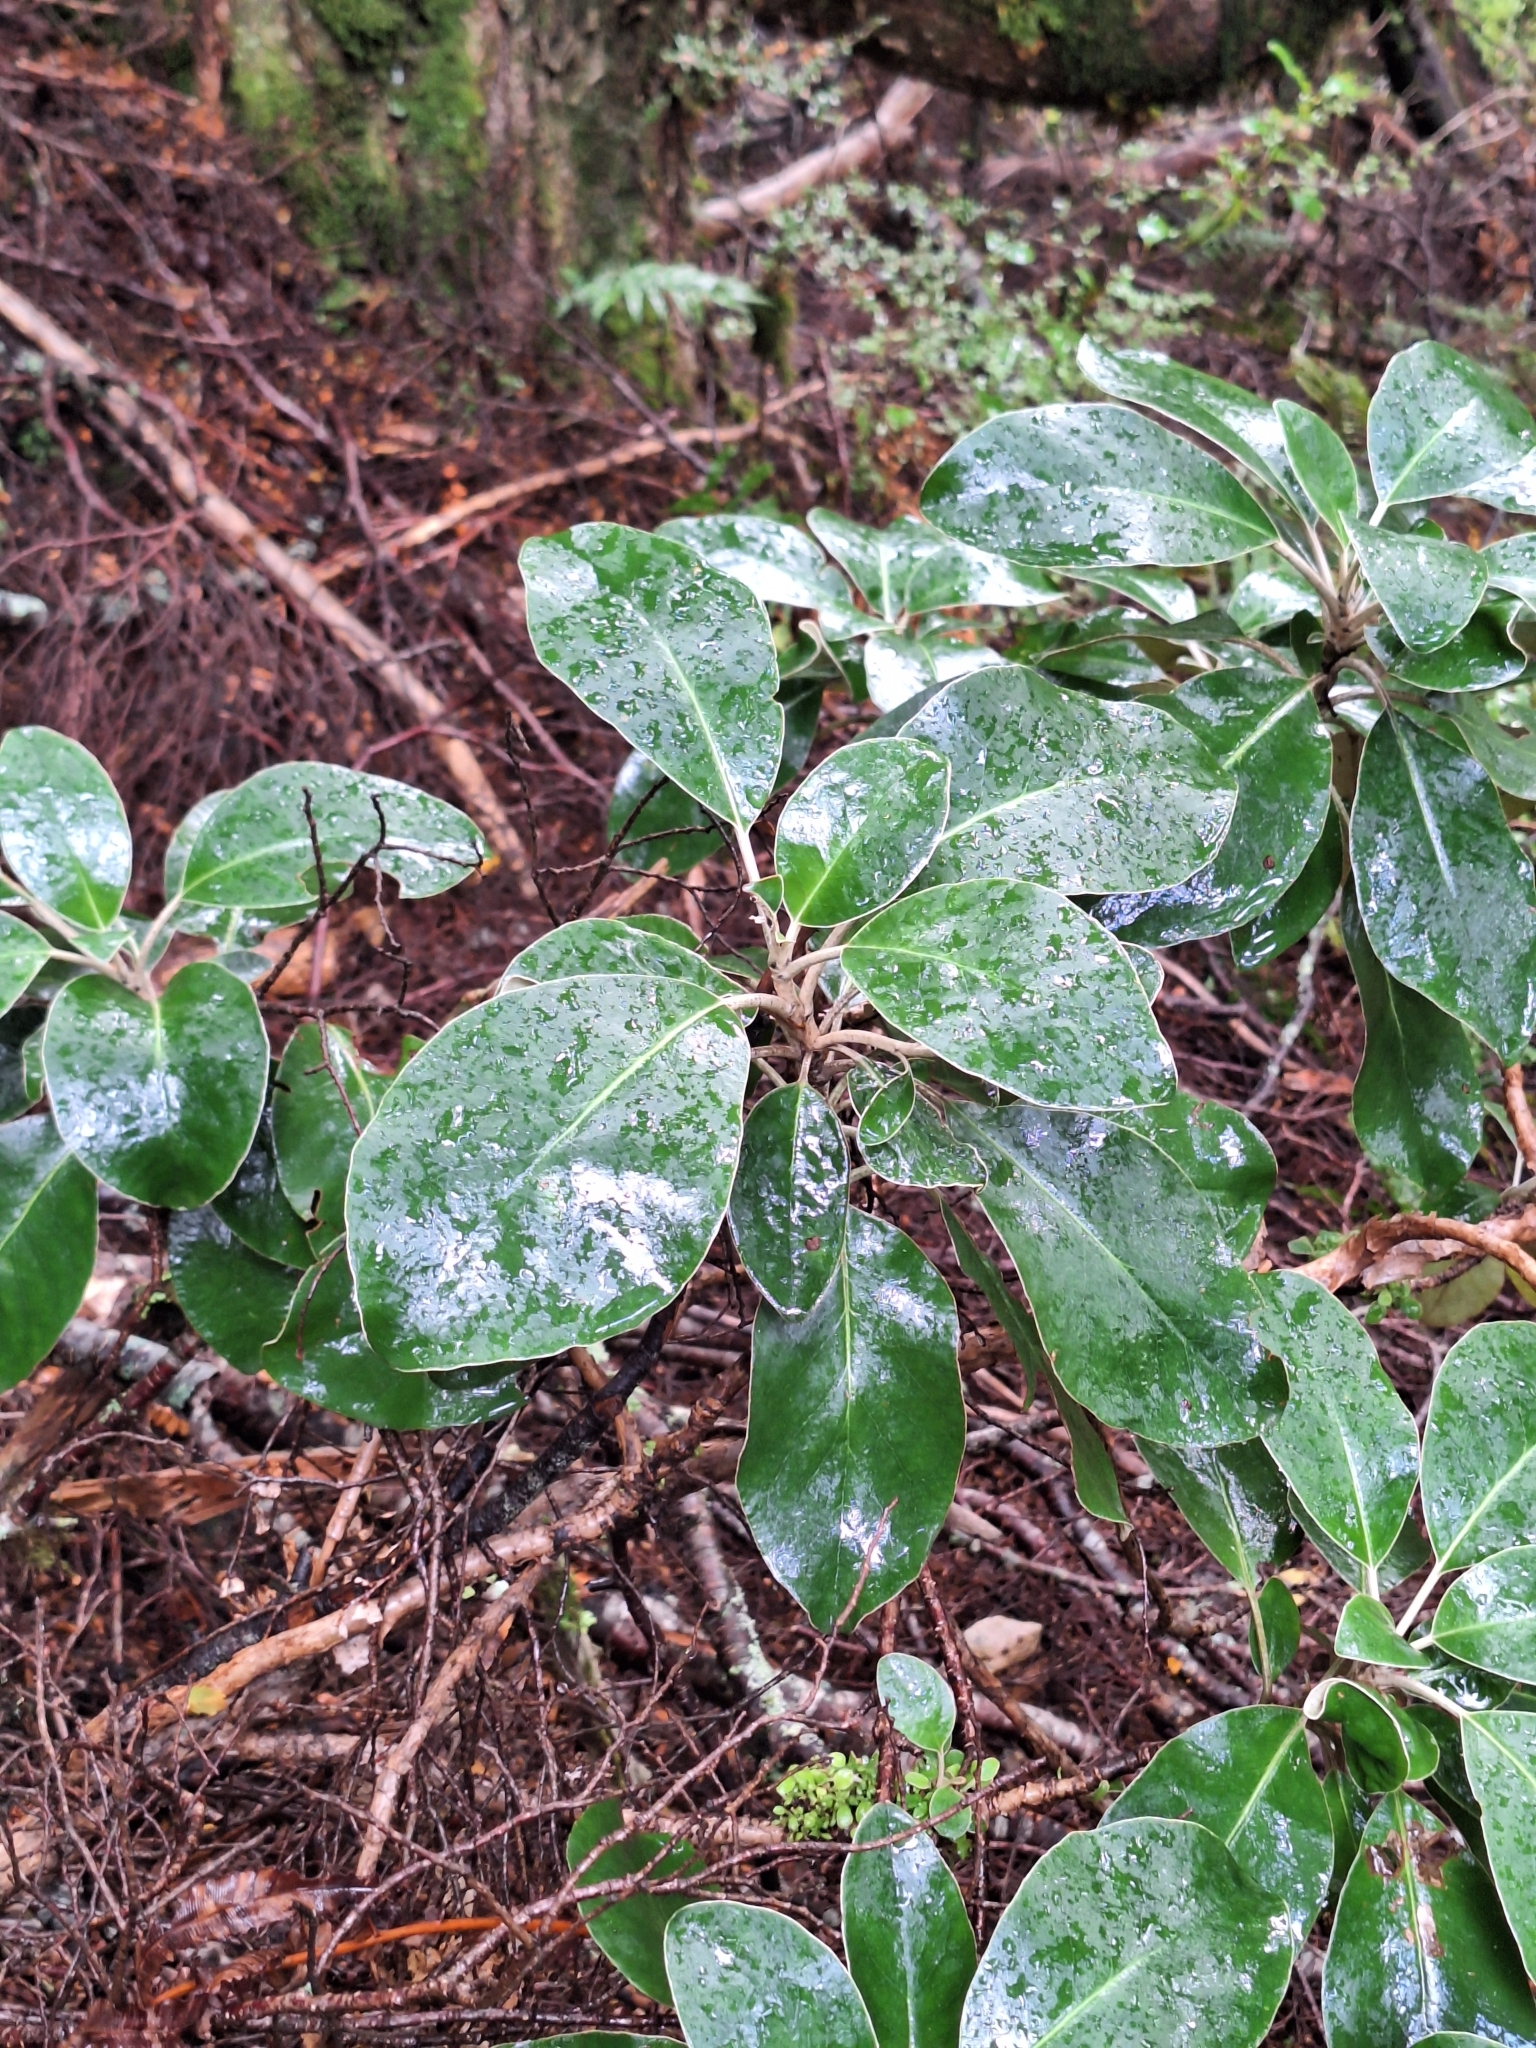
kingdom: Plantae
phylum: Tracheophyta
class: Magnoliopsida
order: Asterales
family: Asteraceae
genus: Brachyglottis
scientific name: Brachyglottis buchananii
